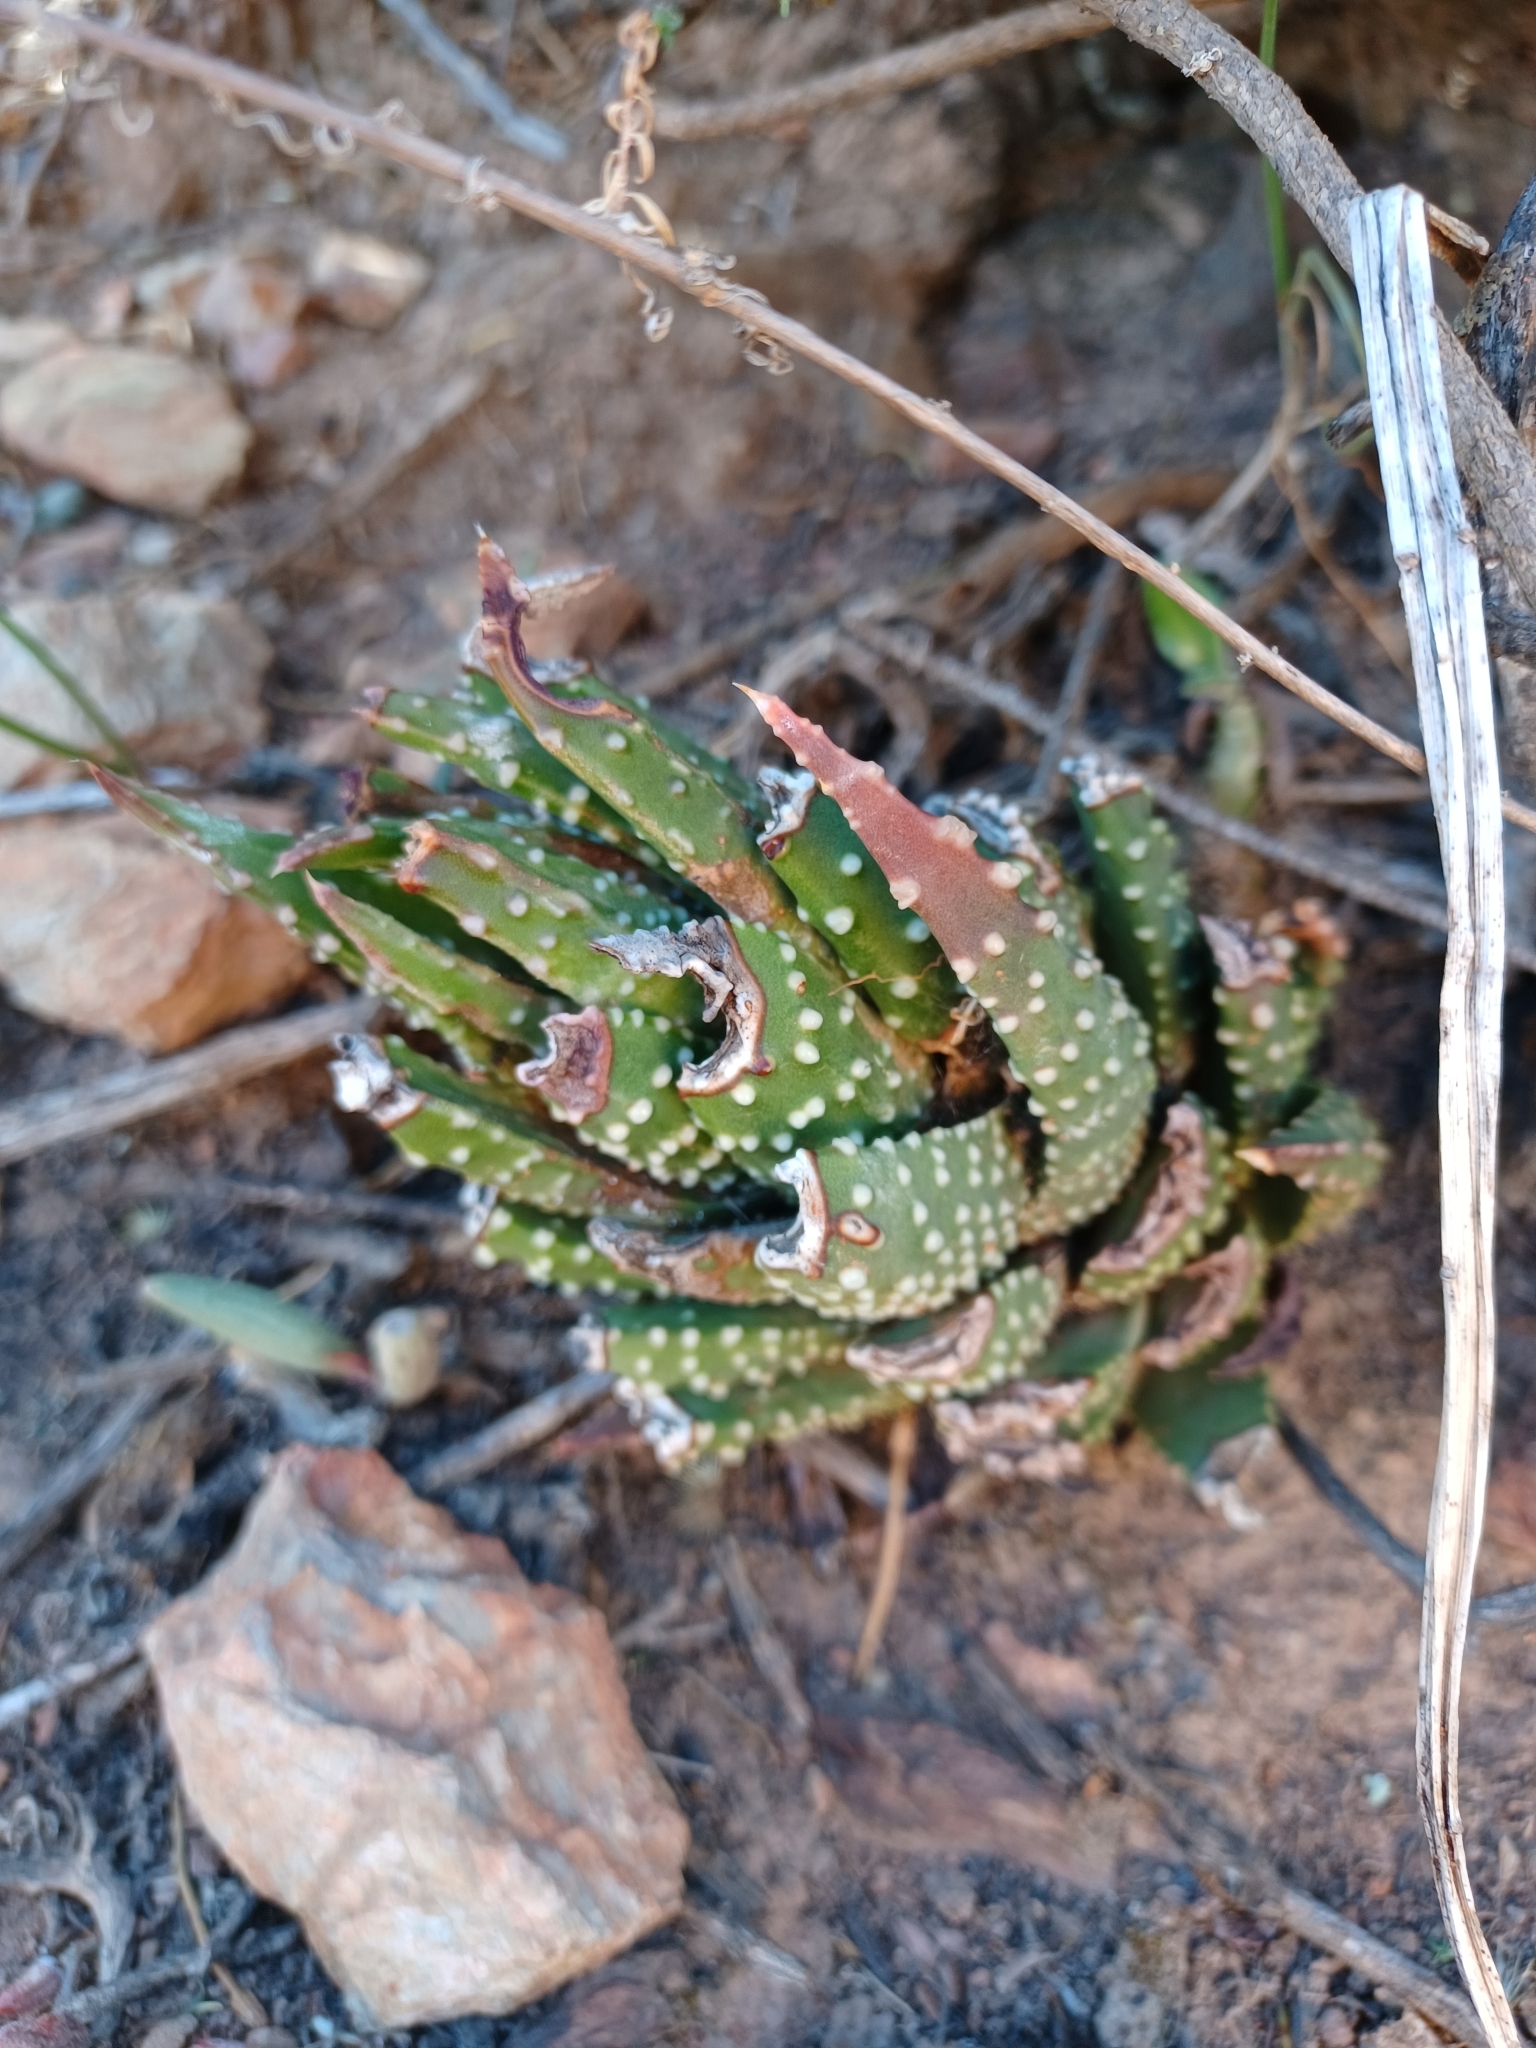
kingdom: Plantae
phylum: Tracheophyta
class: Liliopsida
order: Asparagales
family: Asphodelaceae
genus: Tulista
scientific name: Tulista pumila
